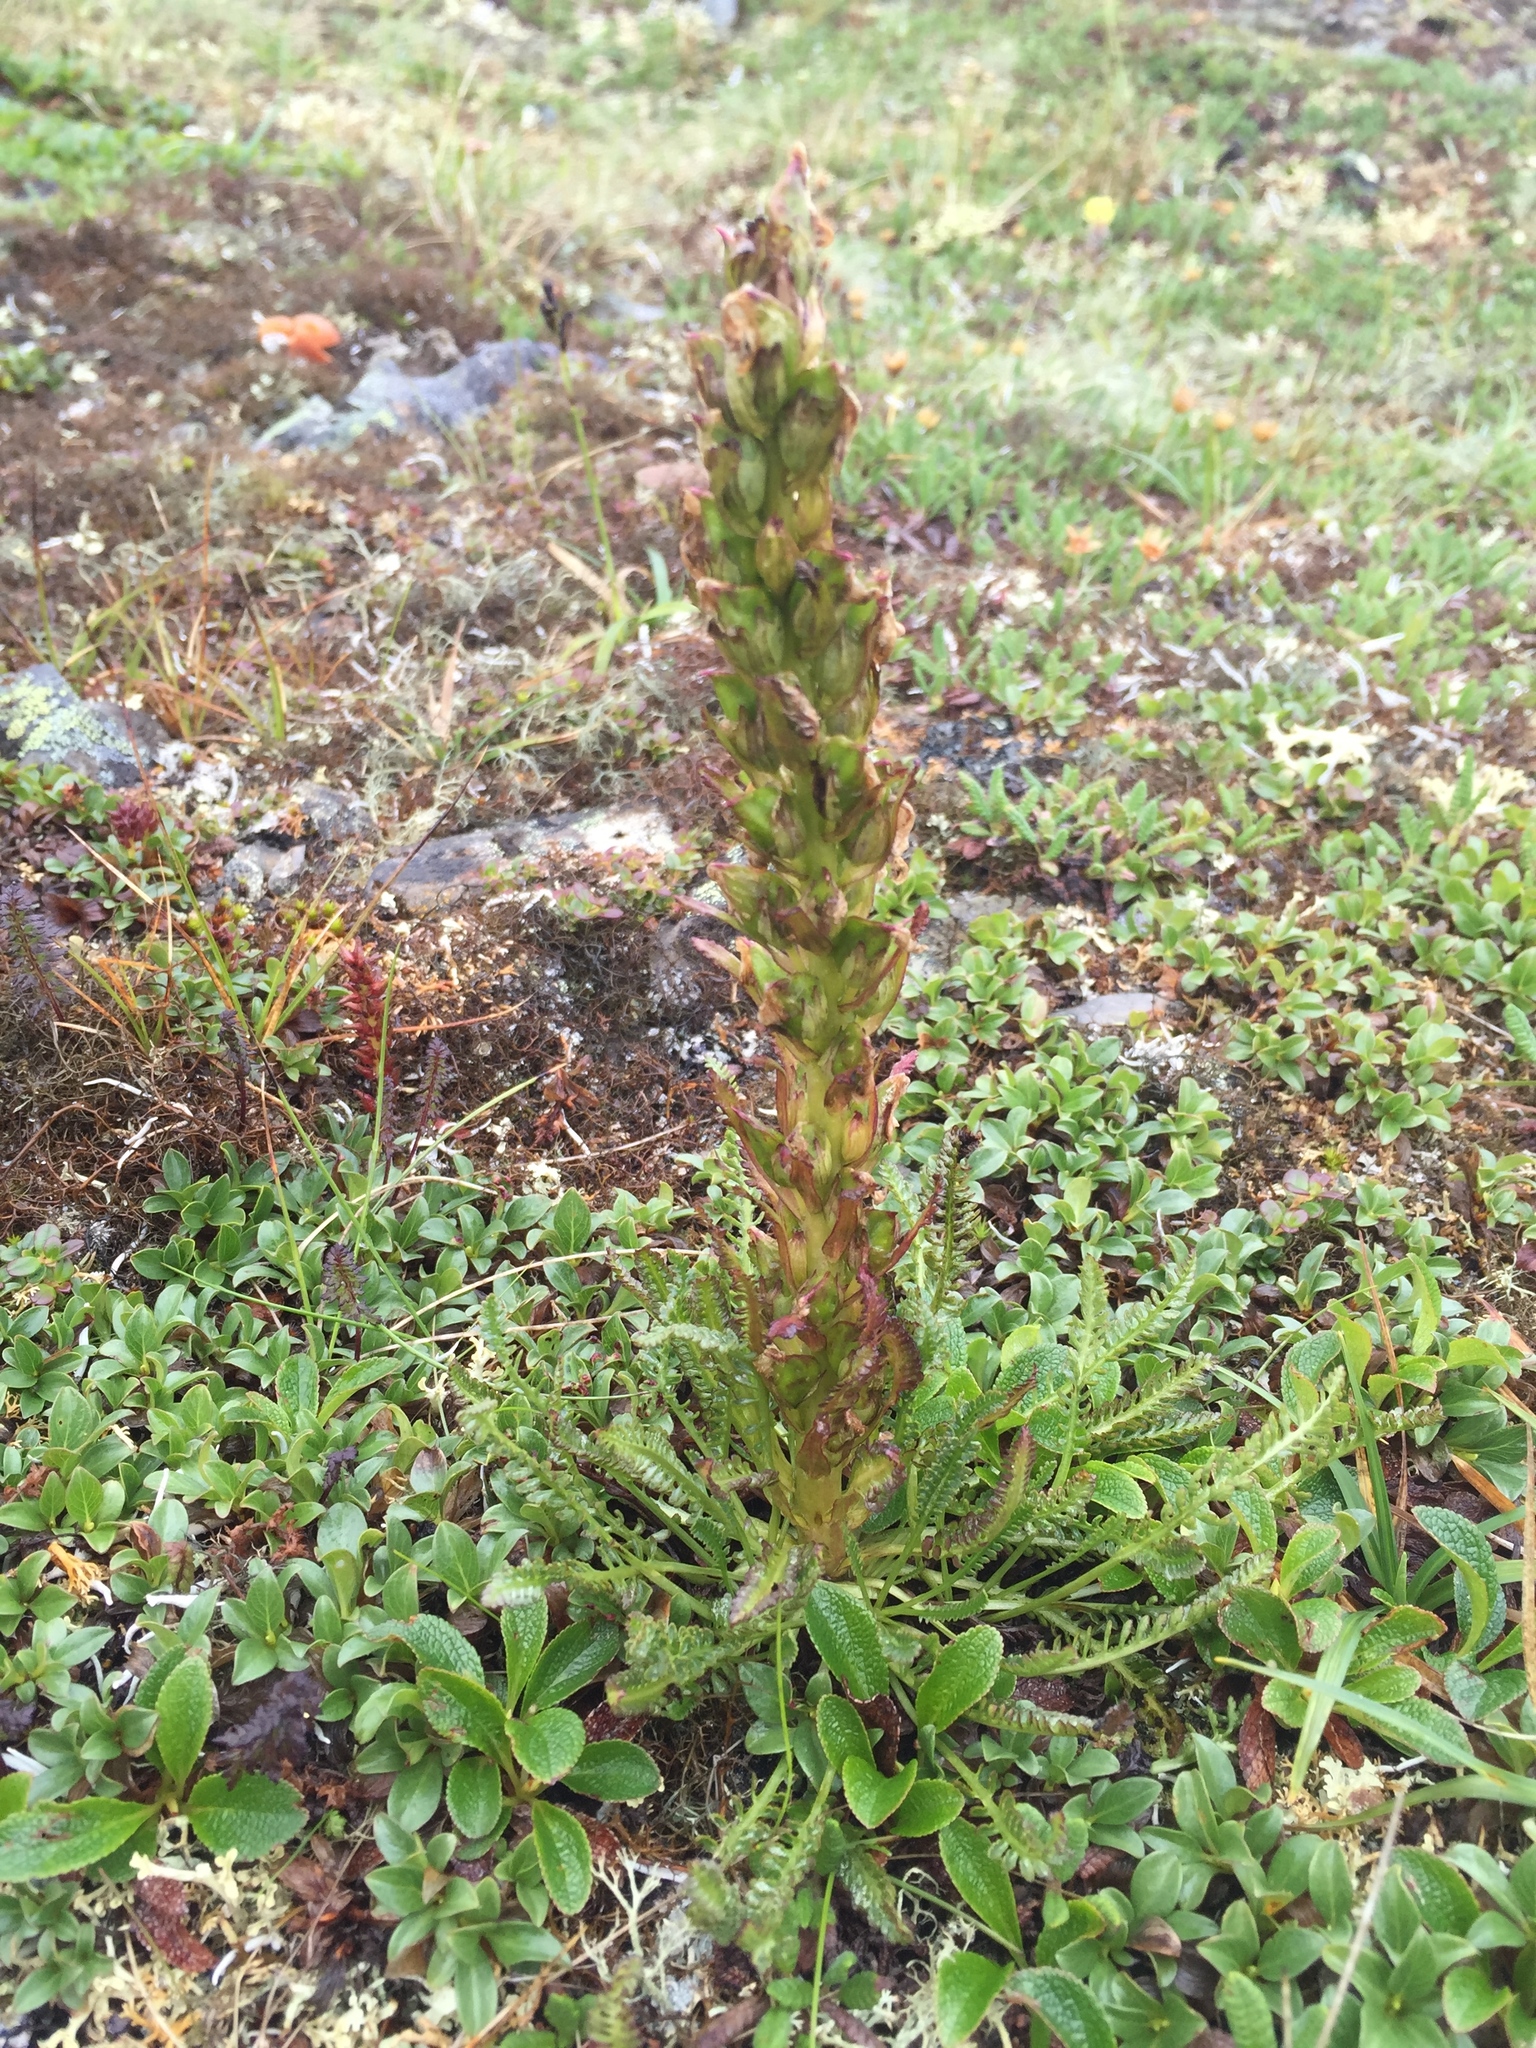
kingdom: Plantae
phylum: Tracheophyta
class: Magnoliopsida
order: Lamiales
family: Orobanchaceae
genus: Pedicularis
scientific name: Pedicularis langsdorffii
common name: Langsdorff's lousewort
